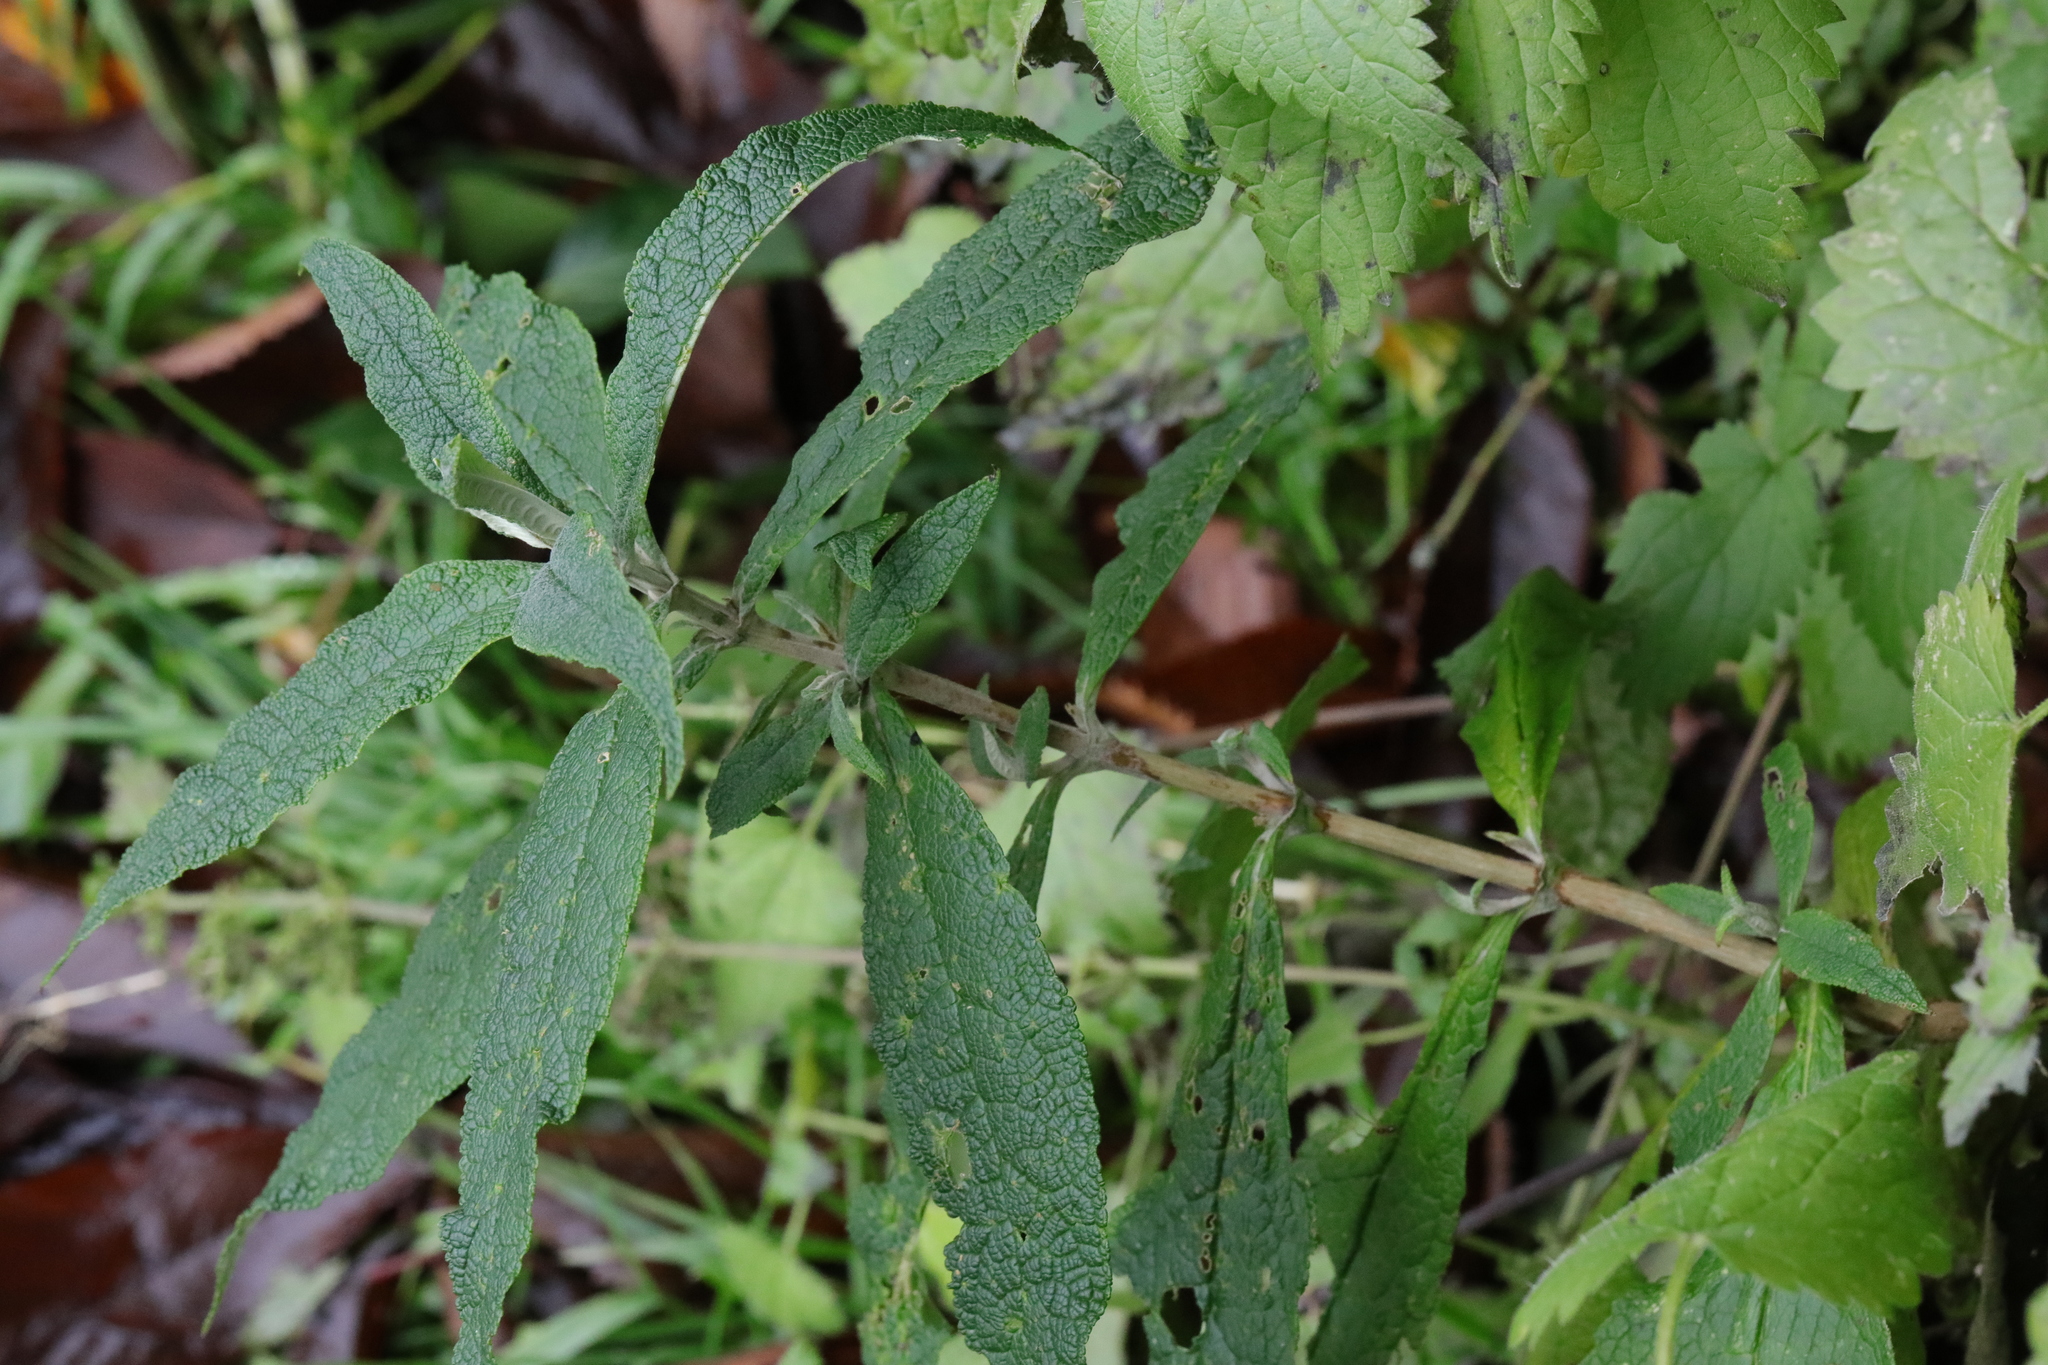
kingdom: Plantae
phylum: Tracheophyta
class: Magnoliopsida
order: Lamiales
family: Scrophulariaceae
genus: Buddleja
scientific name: Buddleja davidii
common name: Butterfly-bush
